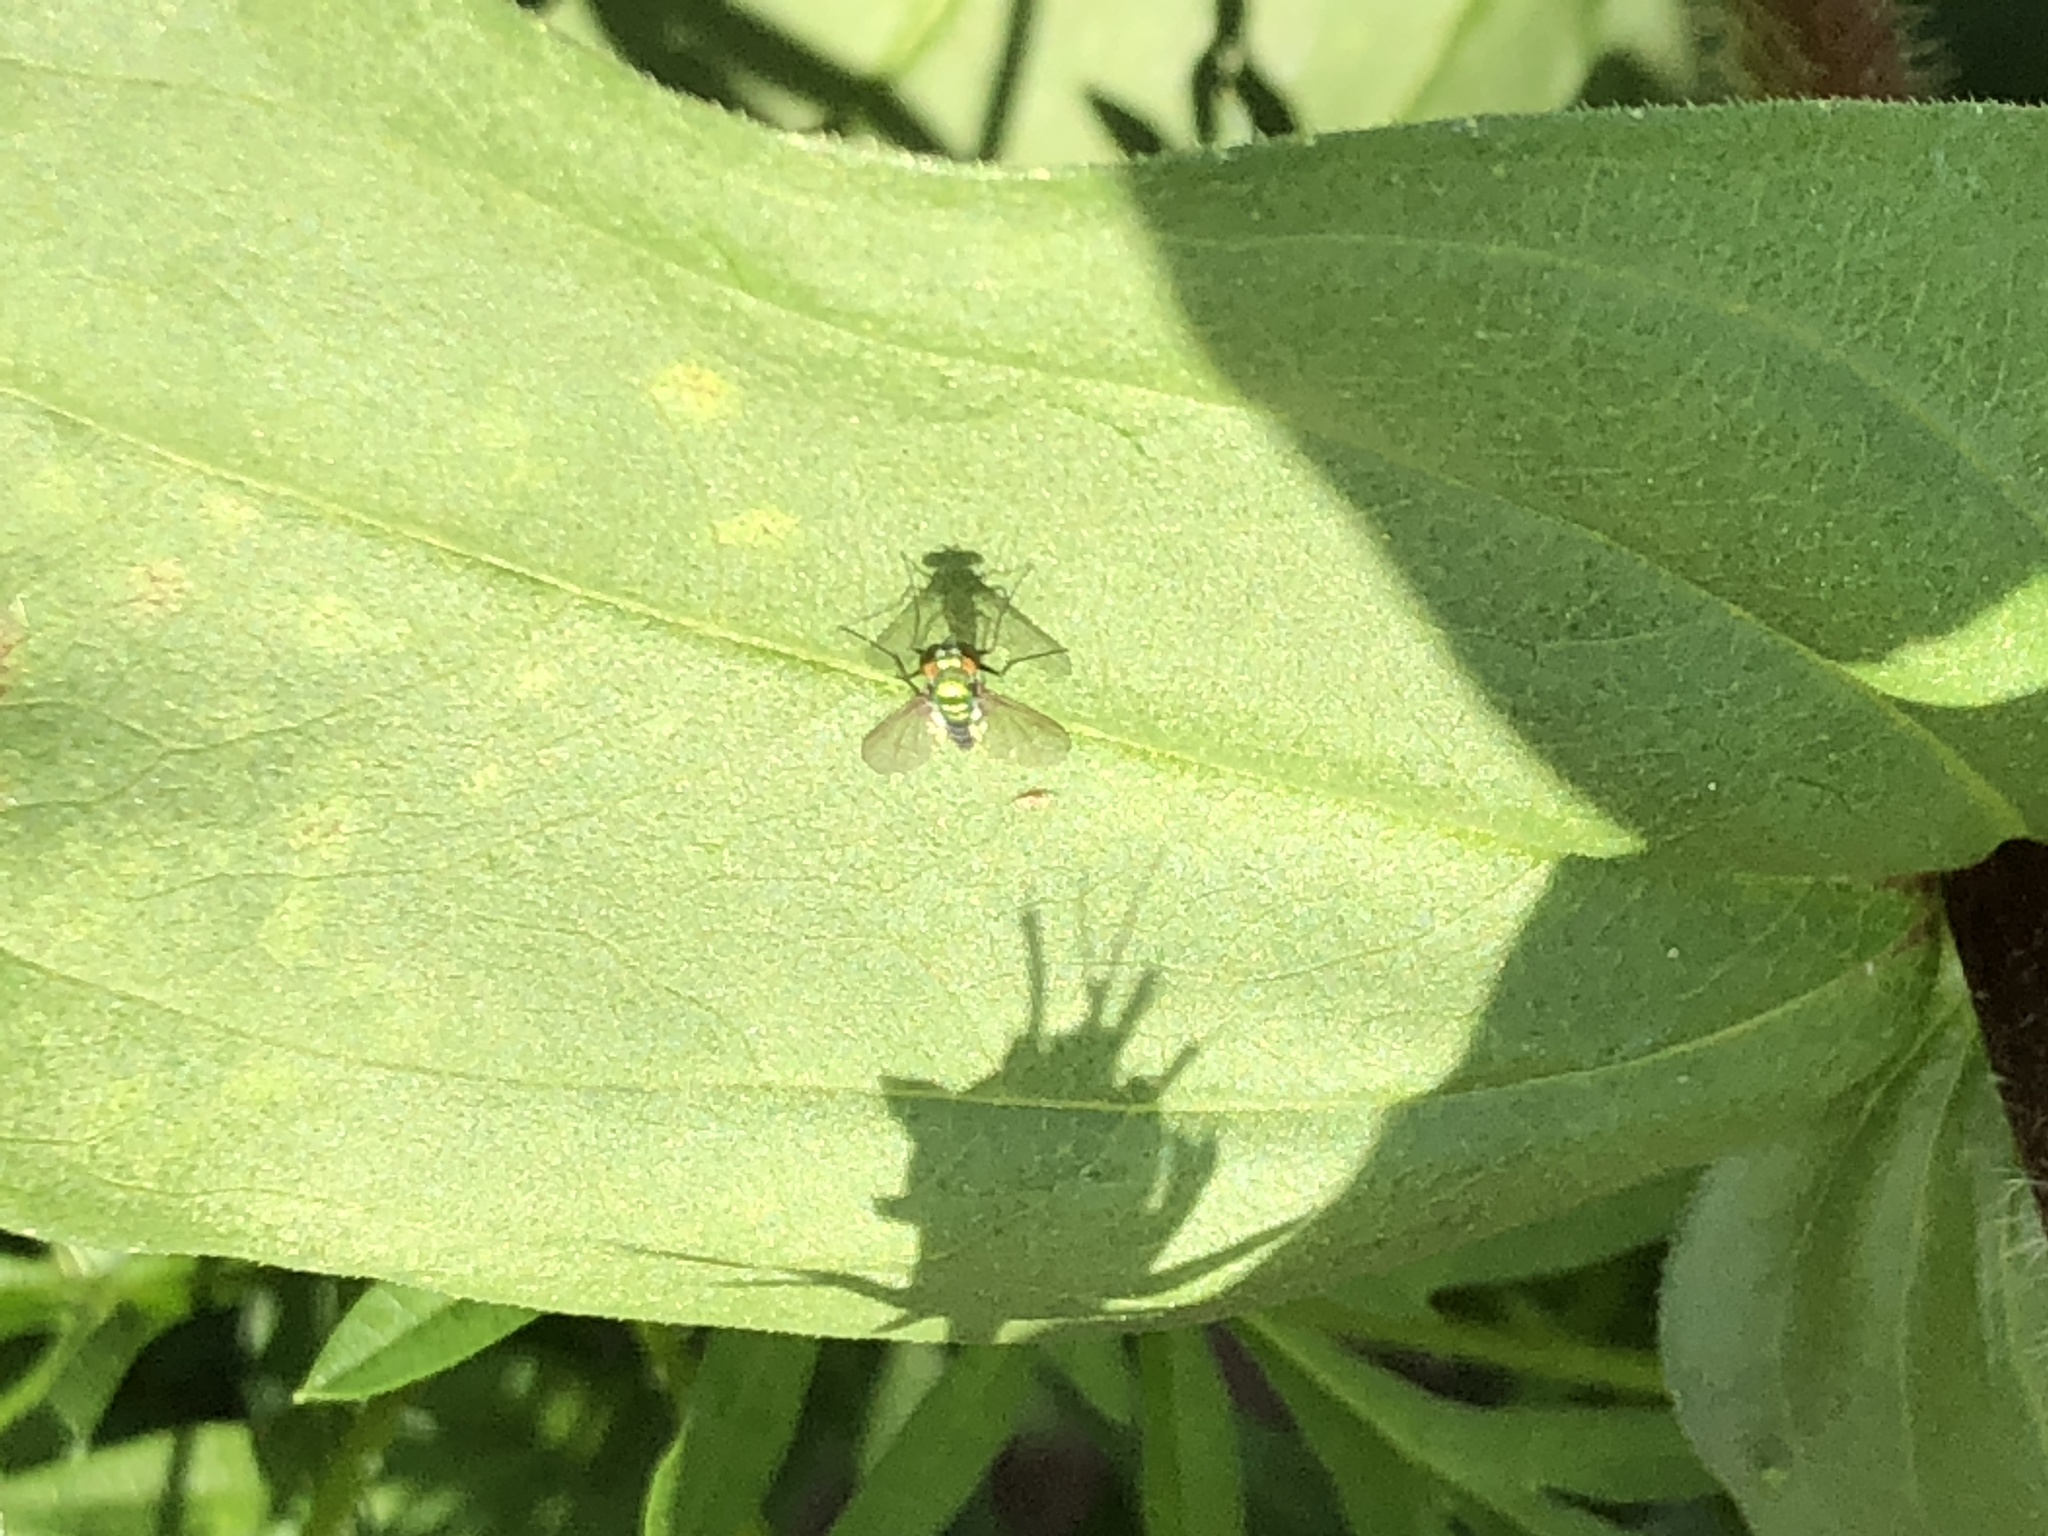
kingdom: Animalia
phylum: Arthropoda
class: Insecta
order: Diptera
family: Dolichopodidae
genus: Condylostylus
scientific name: Condylostylus longicornis
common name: Long-legged fly
